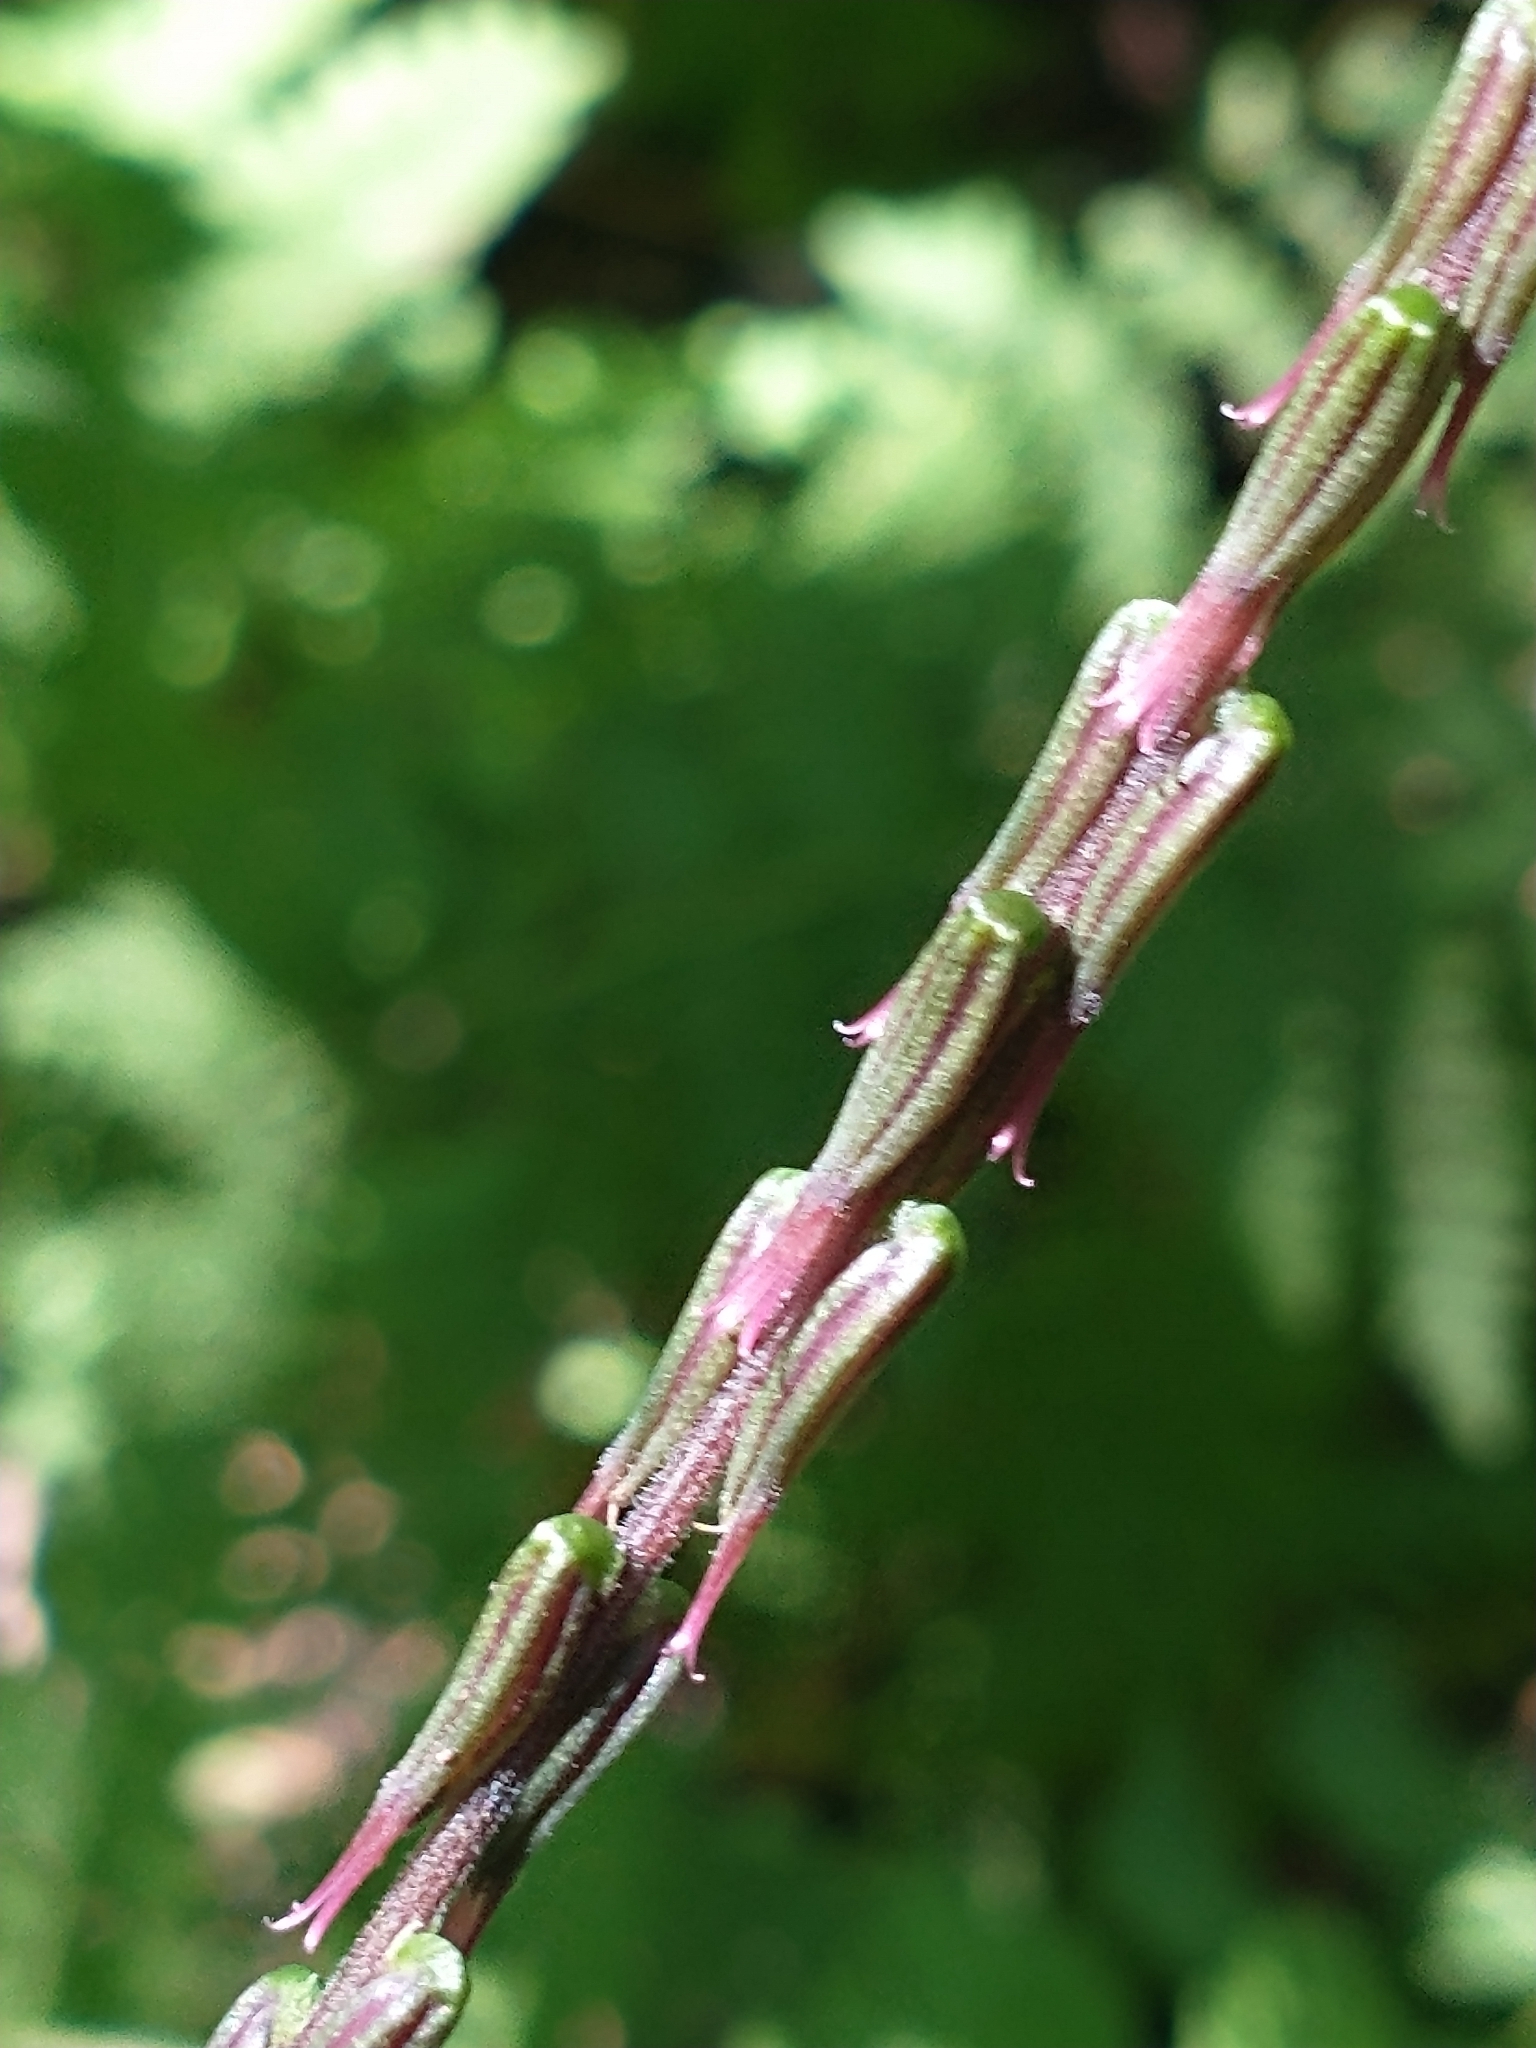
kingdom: Plantae
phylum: Tracheophyta
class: Magnoliopsida
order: Lamiales
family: Phrymaceae
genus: Phryma
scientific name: Phryma leptostachya
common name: American lopseed
